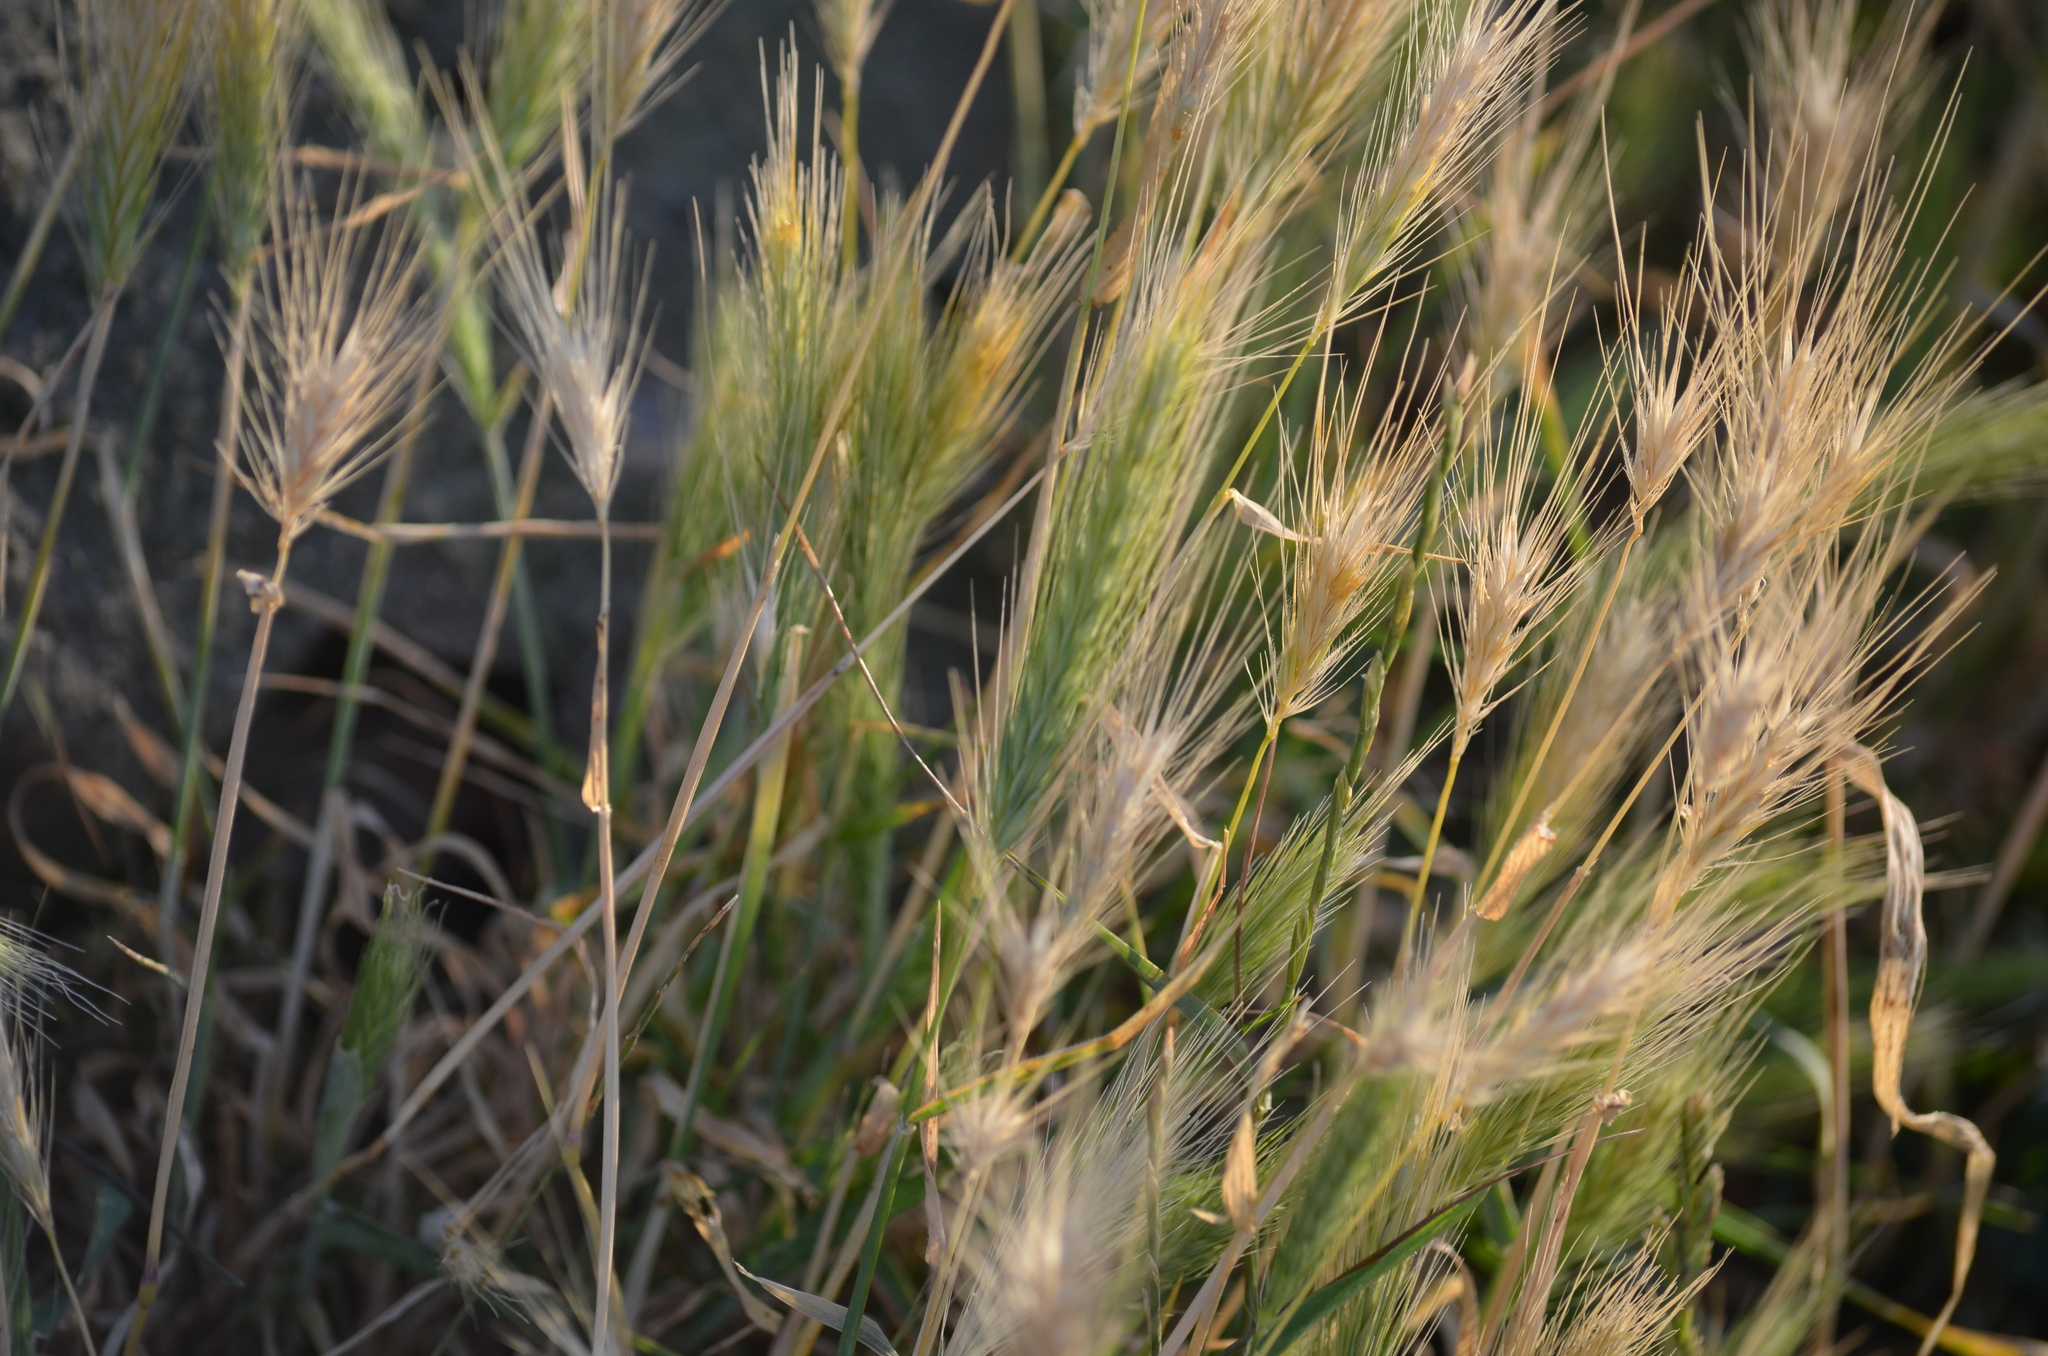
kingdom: Plantae
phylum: Tracheophyta
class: Liliopsida
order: Poales
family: Poaceae
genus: Hordeum
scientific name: Hordeum murinum
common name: Wall barley
